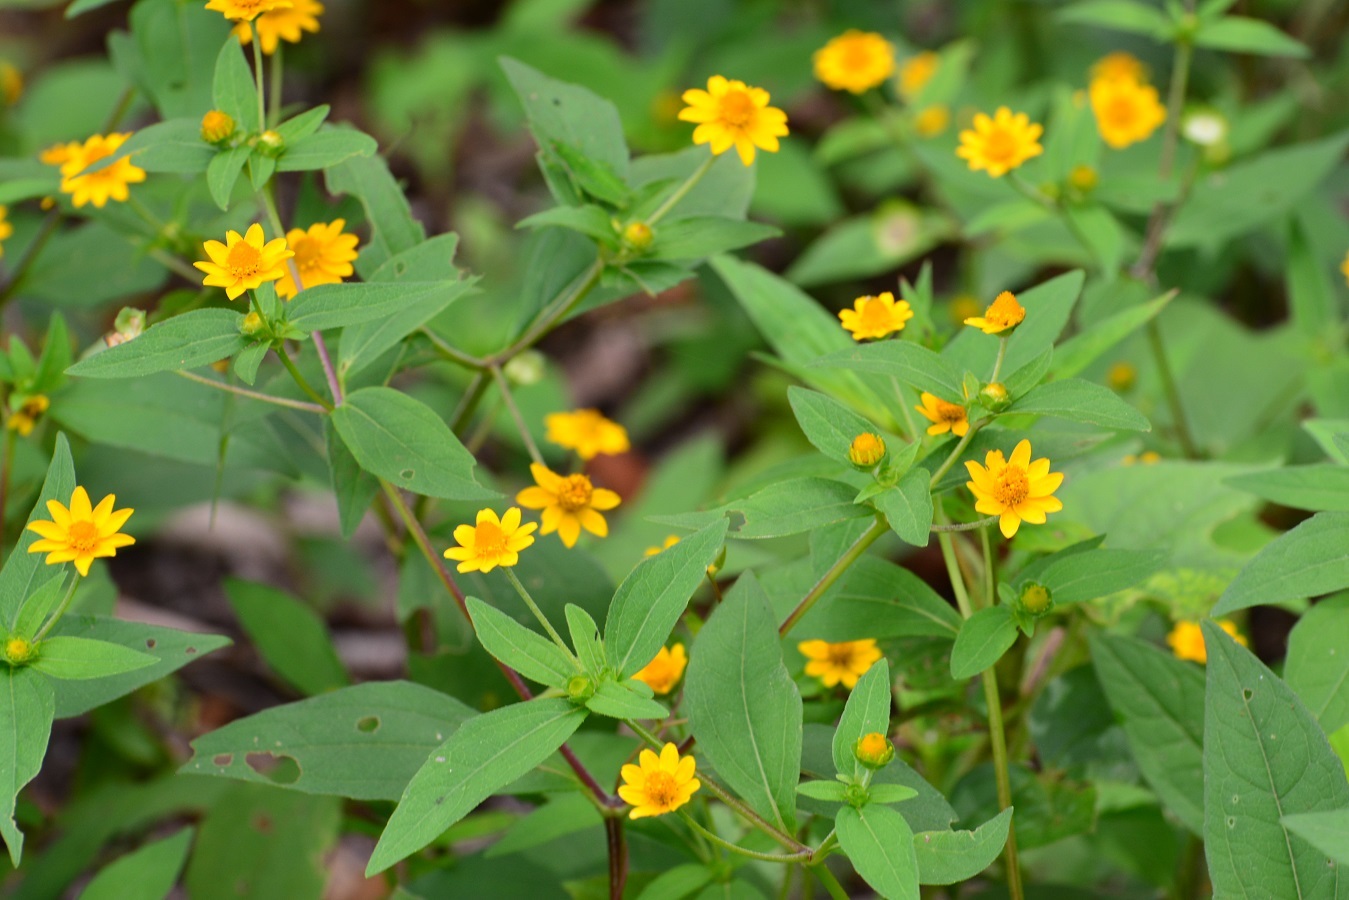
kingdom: Plantae
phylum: Tracheophyta
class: Magnoliopsida
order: Asterales
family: Asteraceae
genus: Melampodium
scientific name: Melampodium divaricatum
